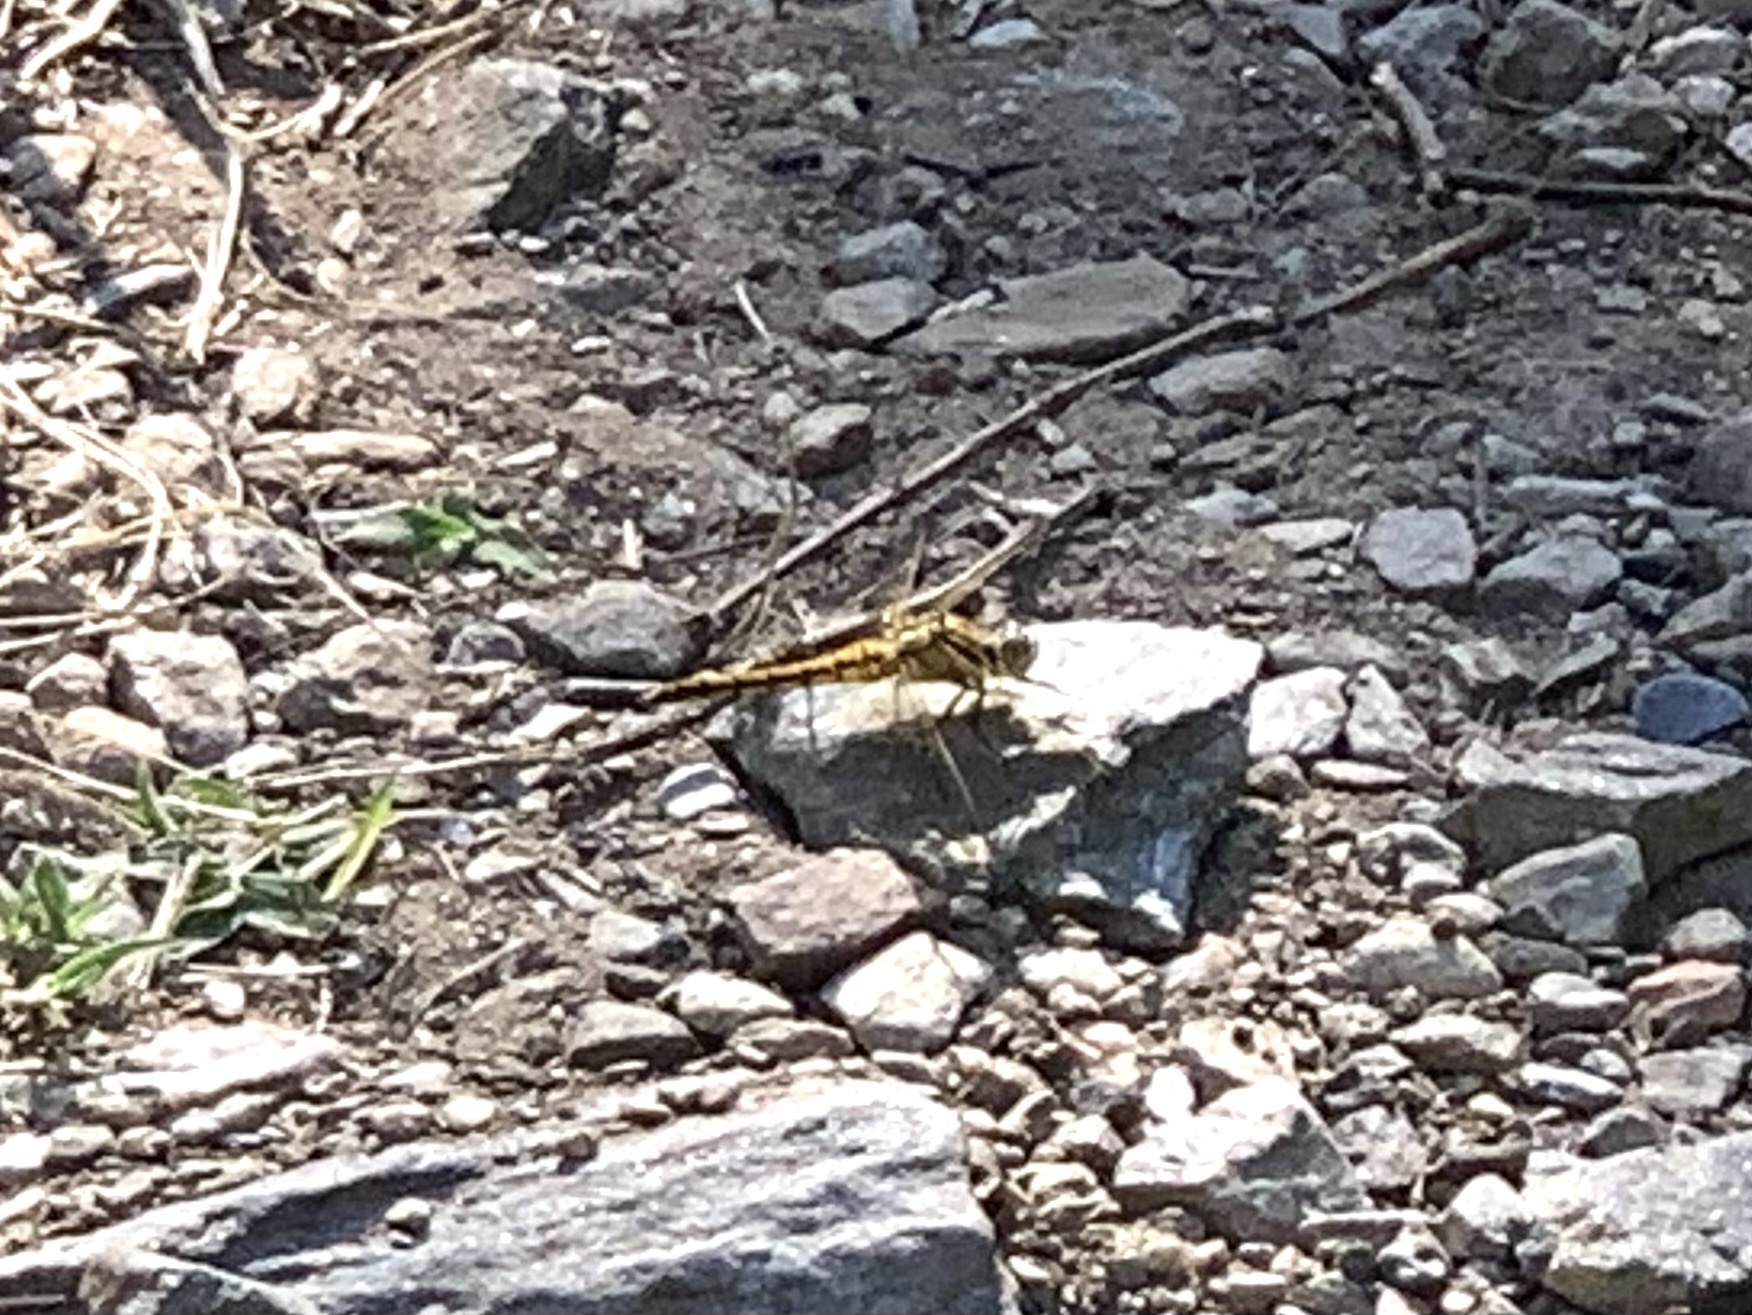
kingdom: Animalia
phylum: Arthropoda
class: Insecta
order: Odonata
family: Libellulidae
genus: Orthetrum
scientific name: Orthetrum cancellatum
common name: Black-tailed skimmer
